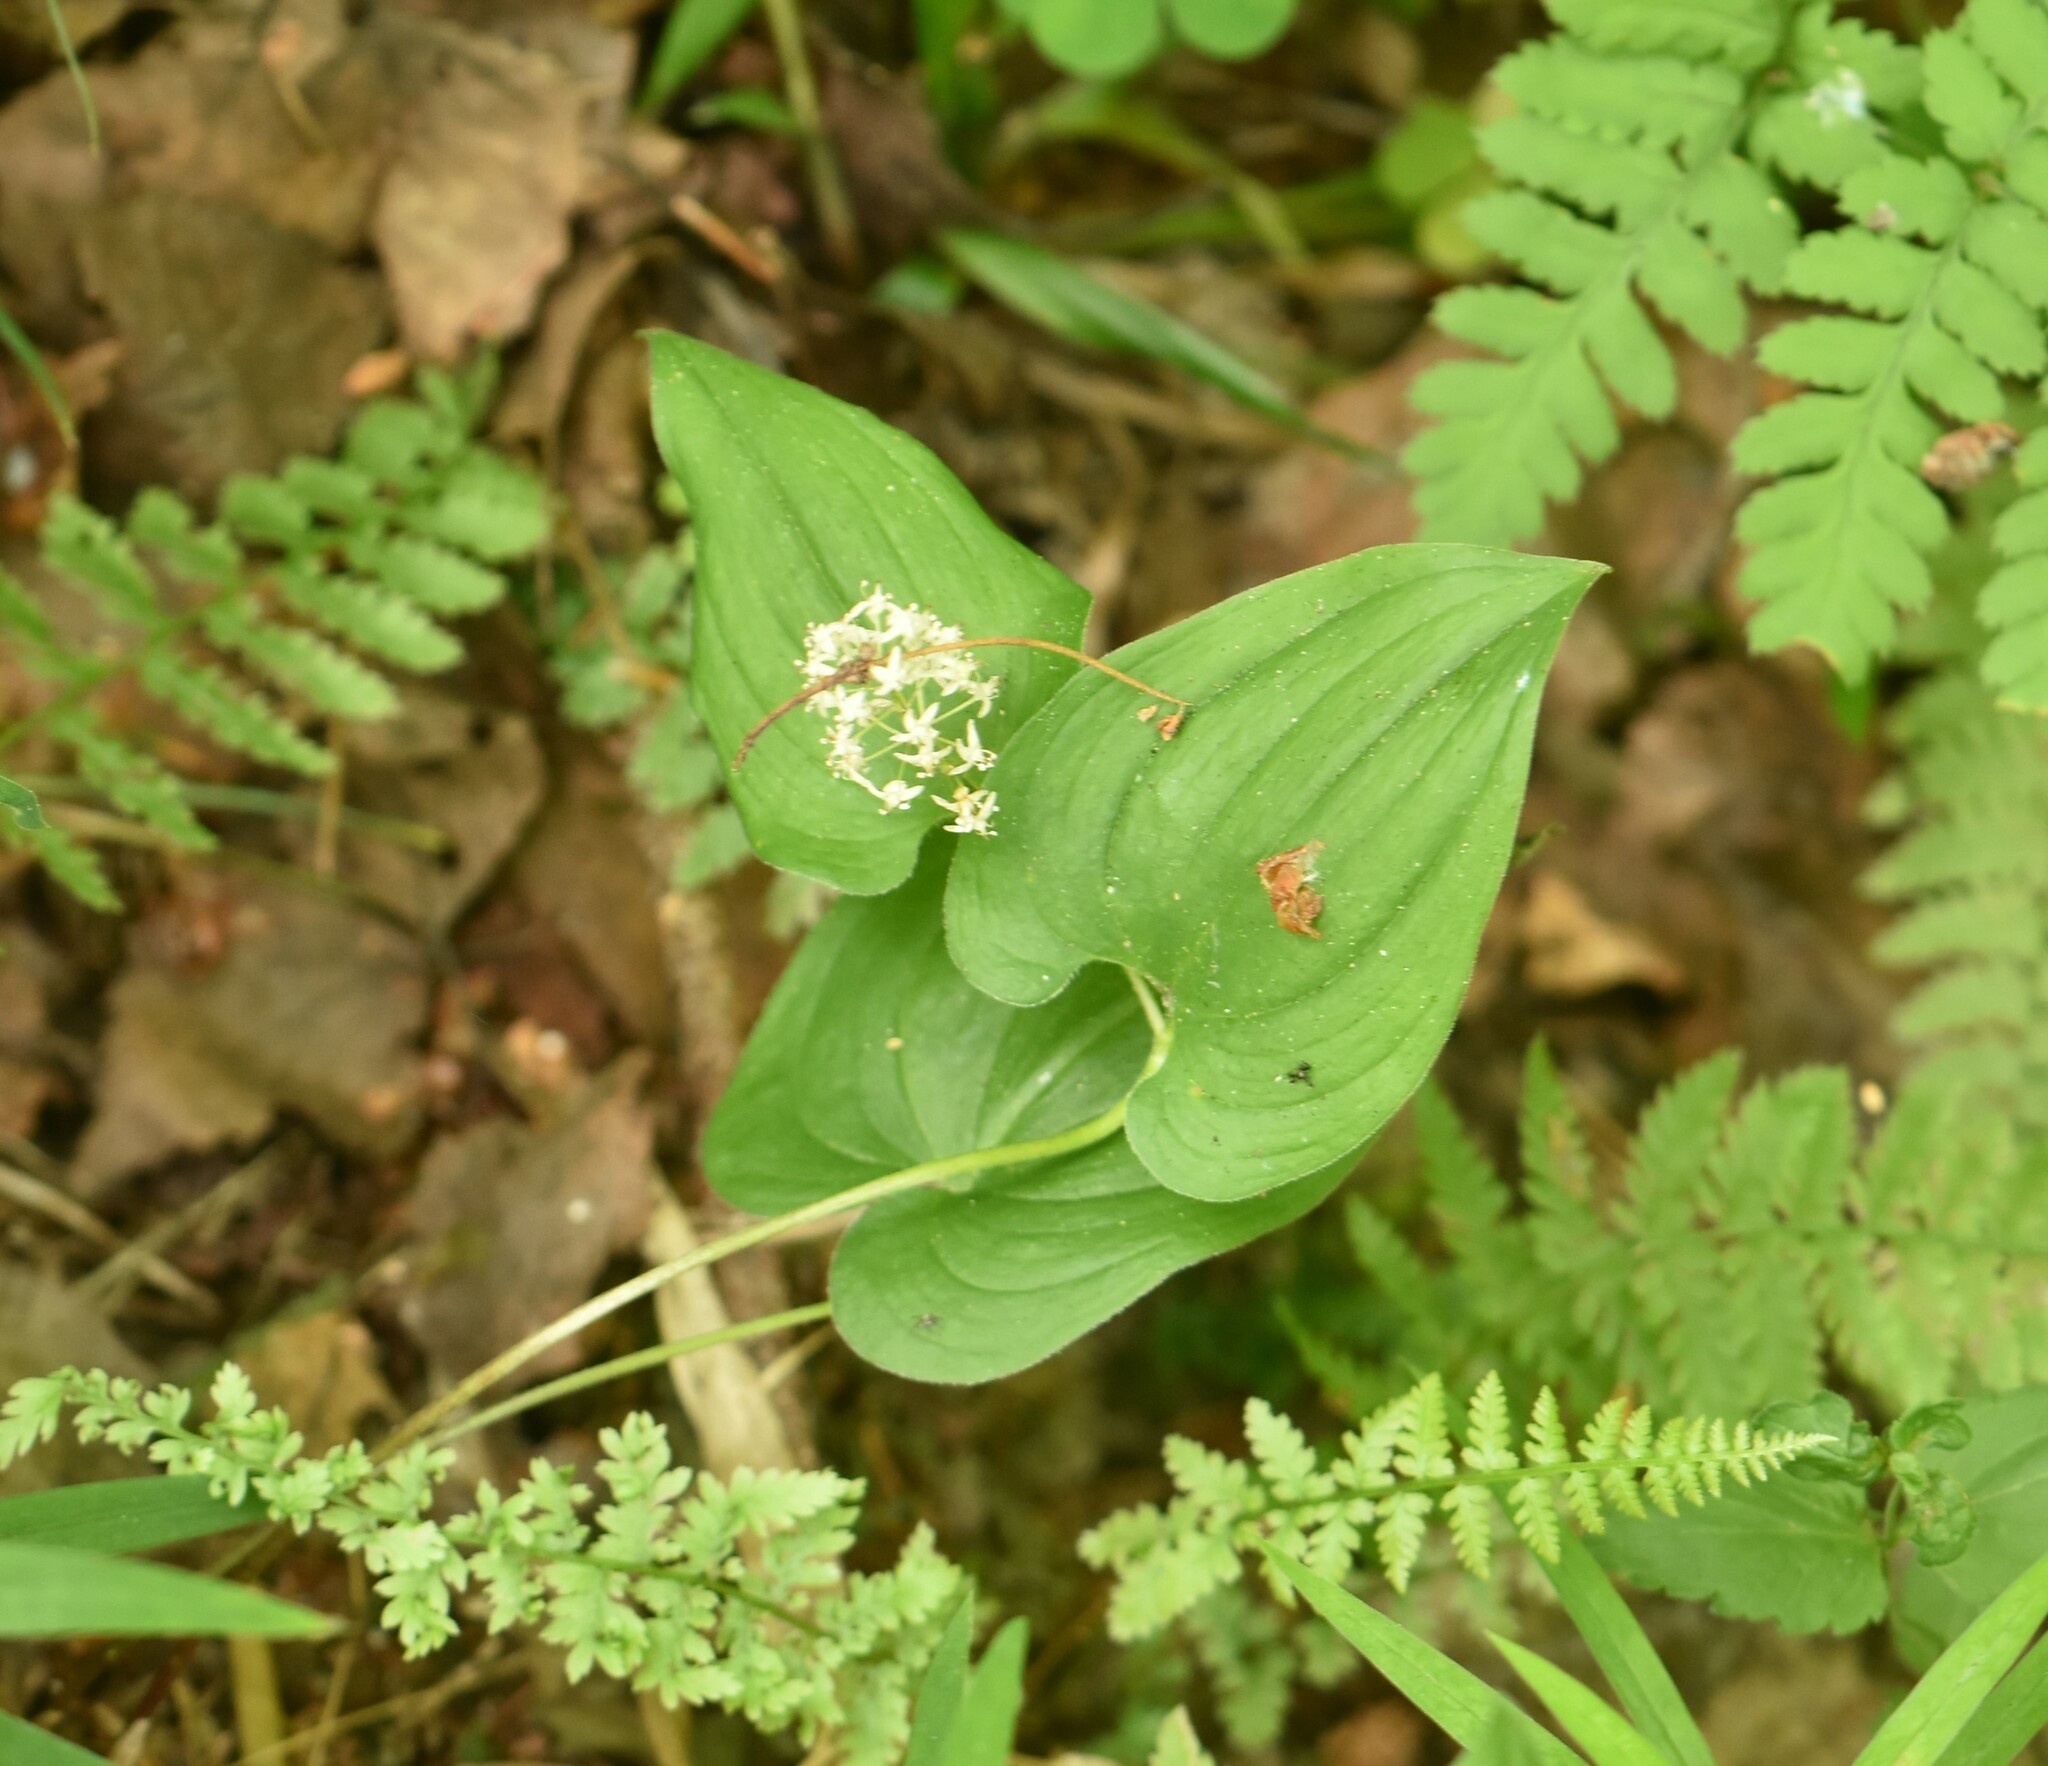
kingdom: Plantae
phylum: Tracheophyta
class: Liliopsida
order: Asparagales
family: Asparagaceae
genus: Maianthemum
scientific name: Maianthemum bifolium
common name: May lily
